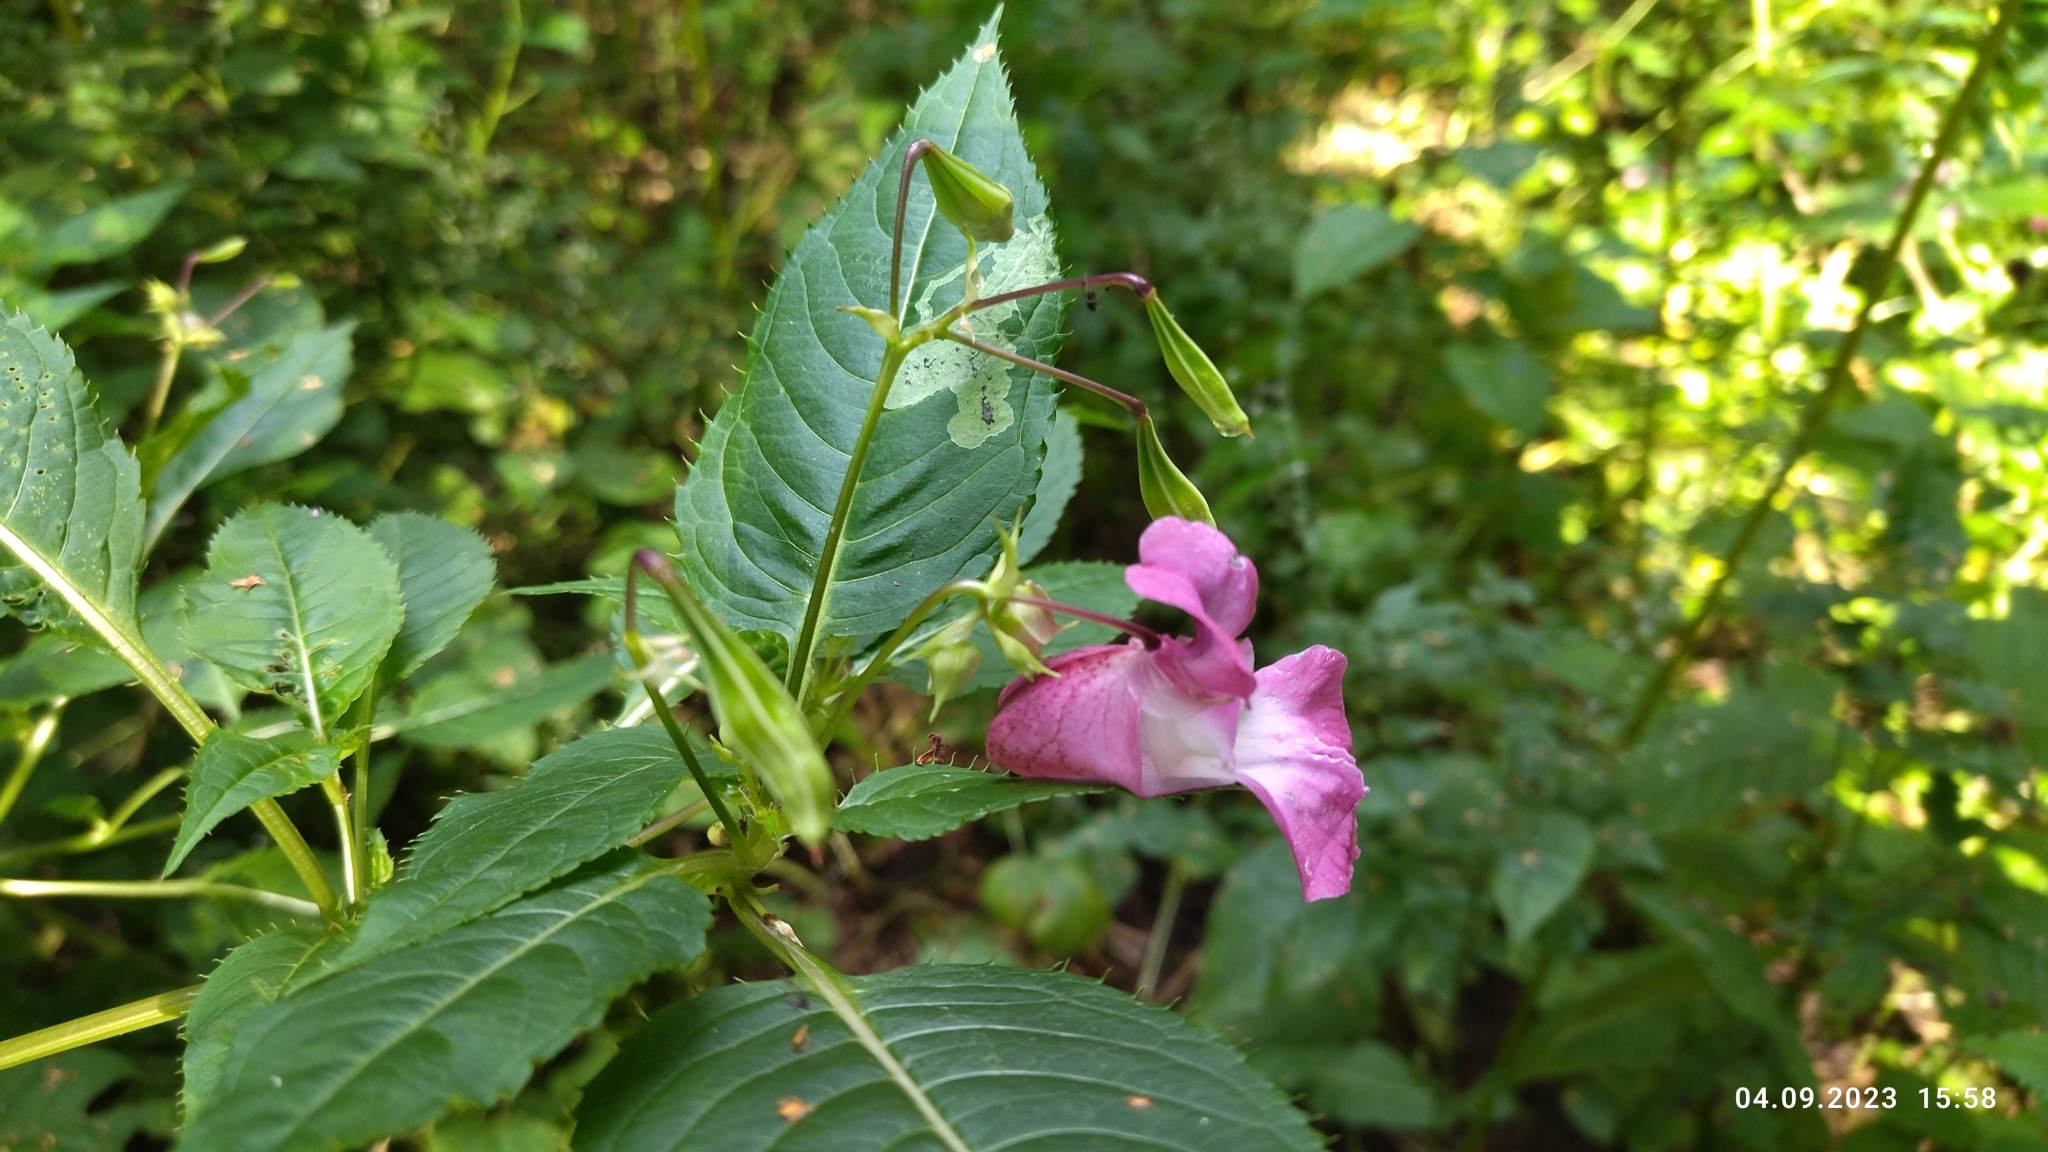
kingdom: Plantae
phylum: Tracheophyta
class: Magnoliopsida
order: Ericales
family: Balsaminaceae
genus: Impatiens
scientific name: Impatiens glandulifera
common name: Himalayan balsam
